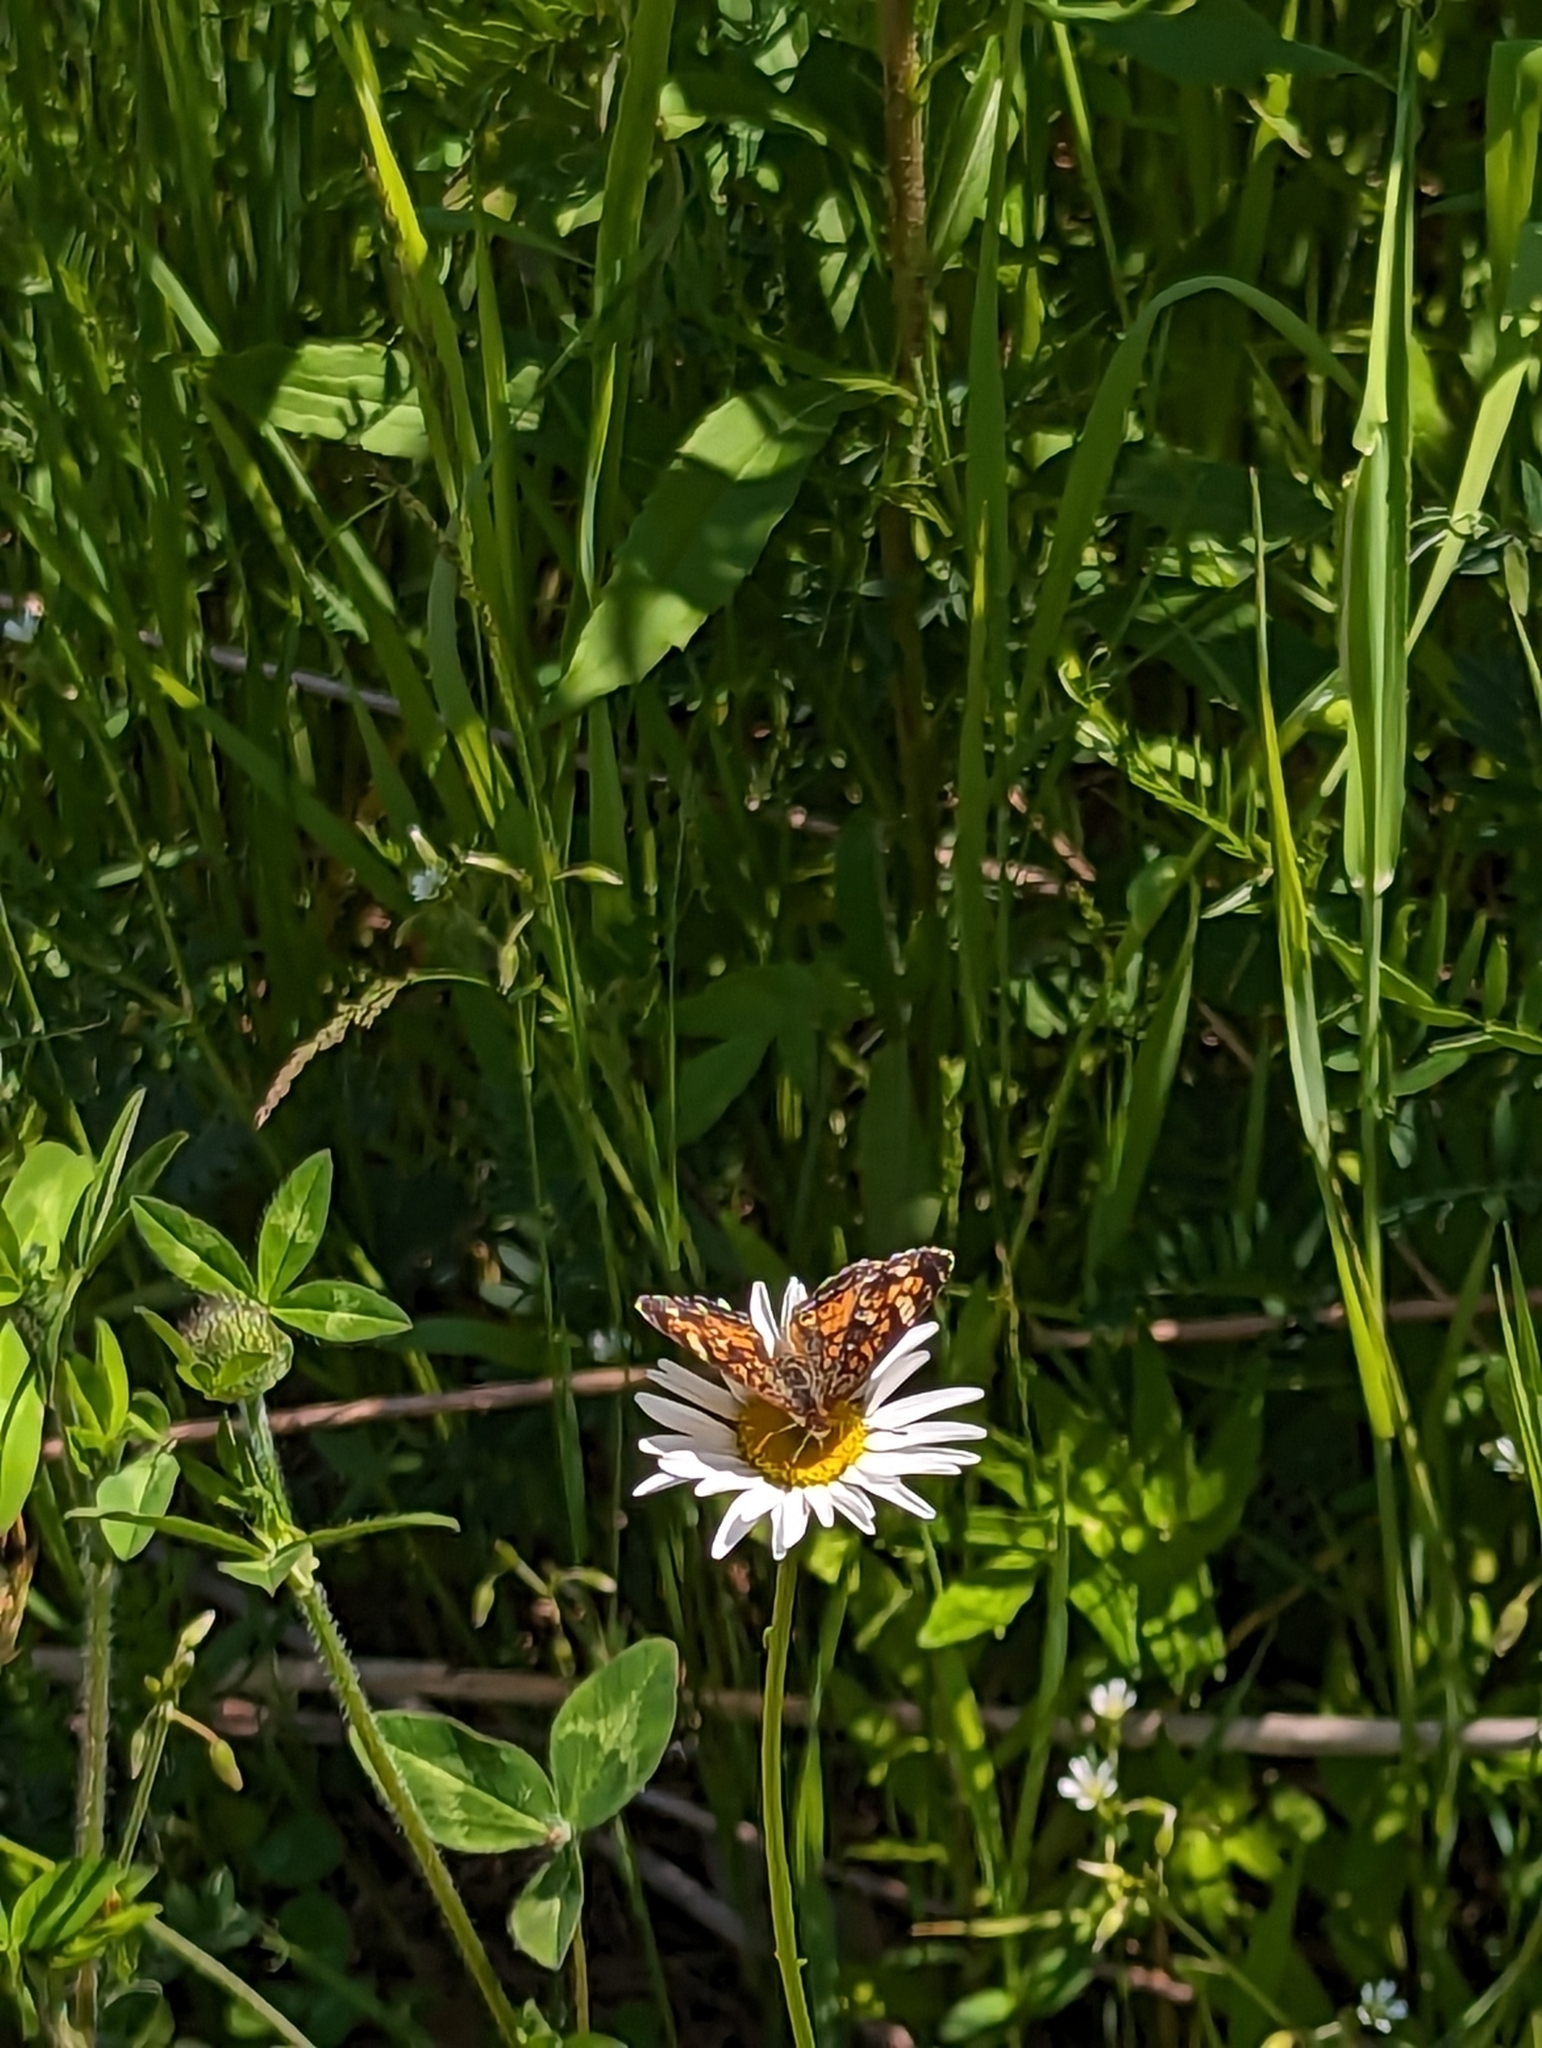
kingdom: Animalia
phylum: Arthropoda
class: Insecta
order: Lepidoptera
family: Nymphalidae
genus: Phyciodes
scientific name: Phyciodes tharos
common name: Pearl crescent
